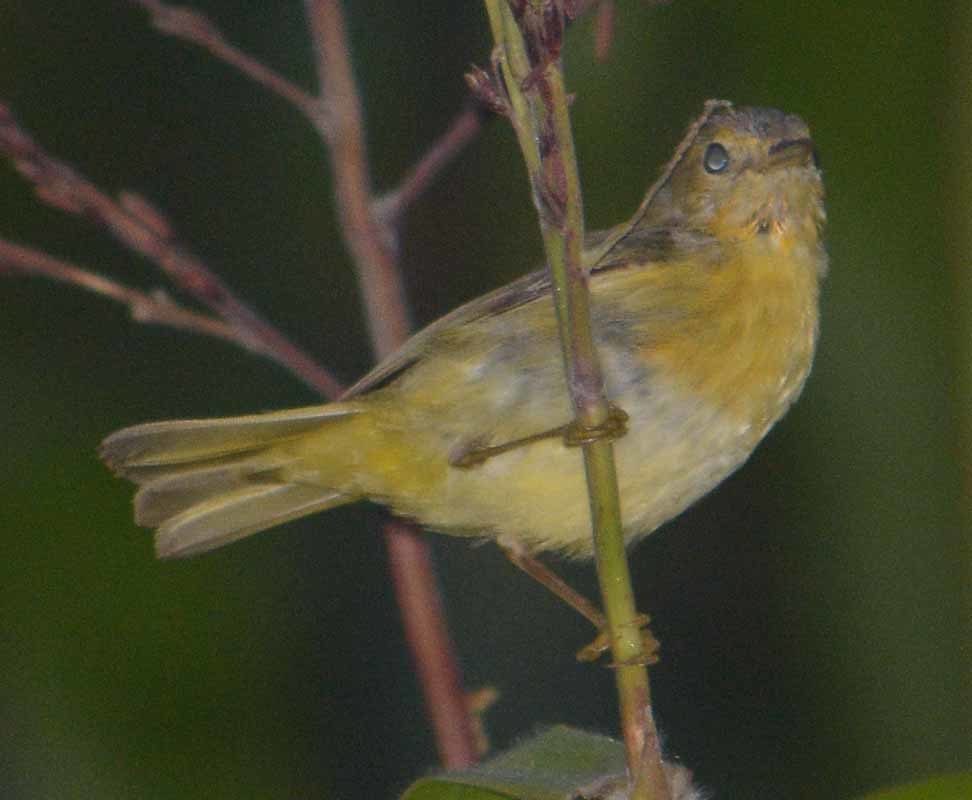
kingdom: Animalia
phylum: Chordata
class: Aves
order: Passeriformes
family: Parulidae
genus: Setophaga
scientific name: Setophaga petechia
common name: Yellow warbler
